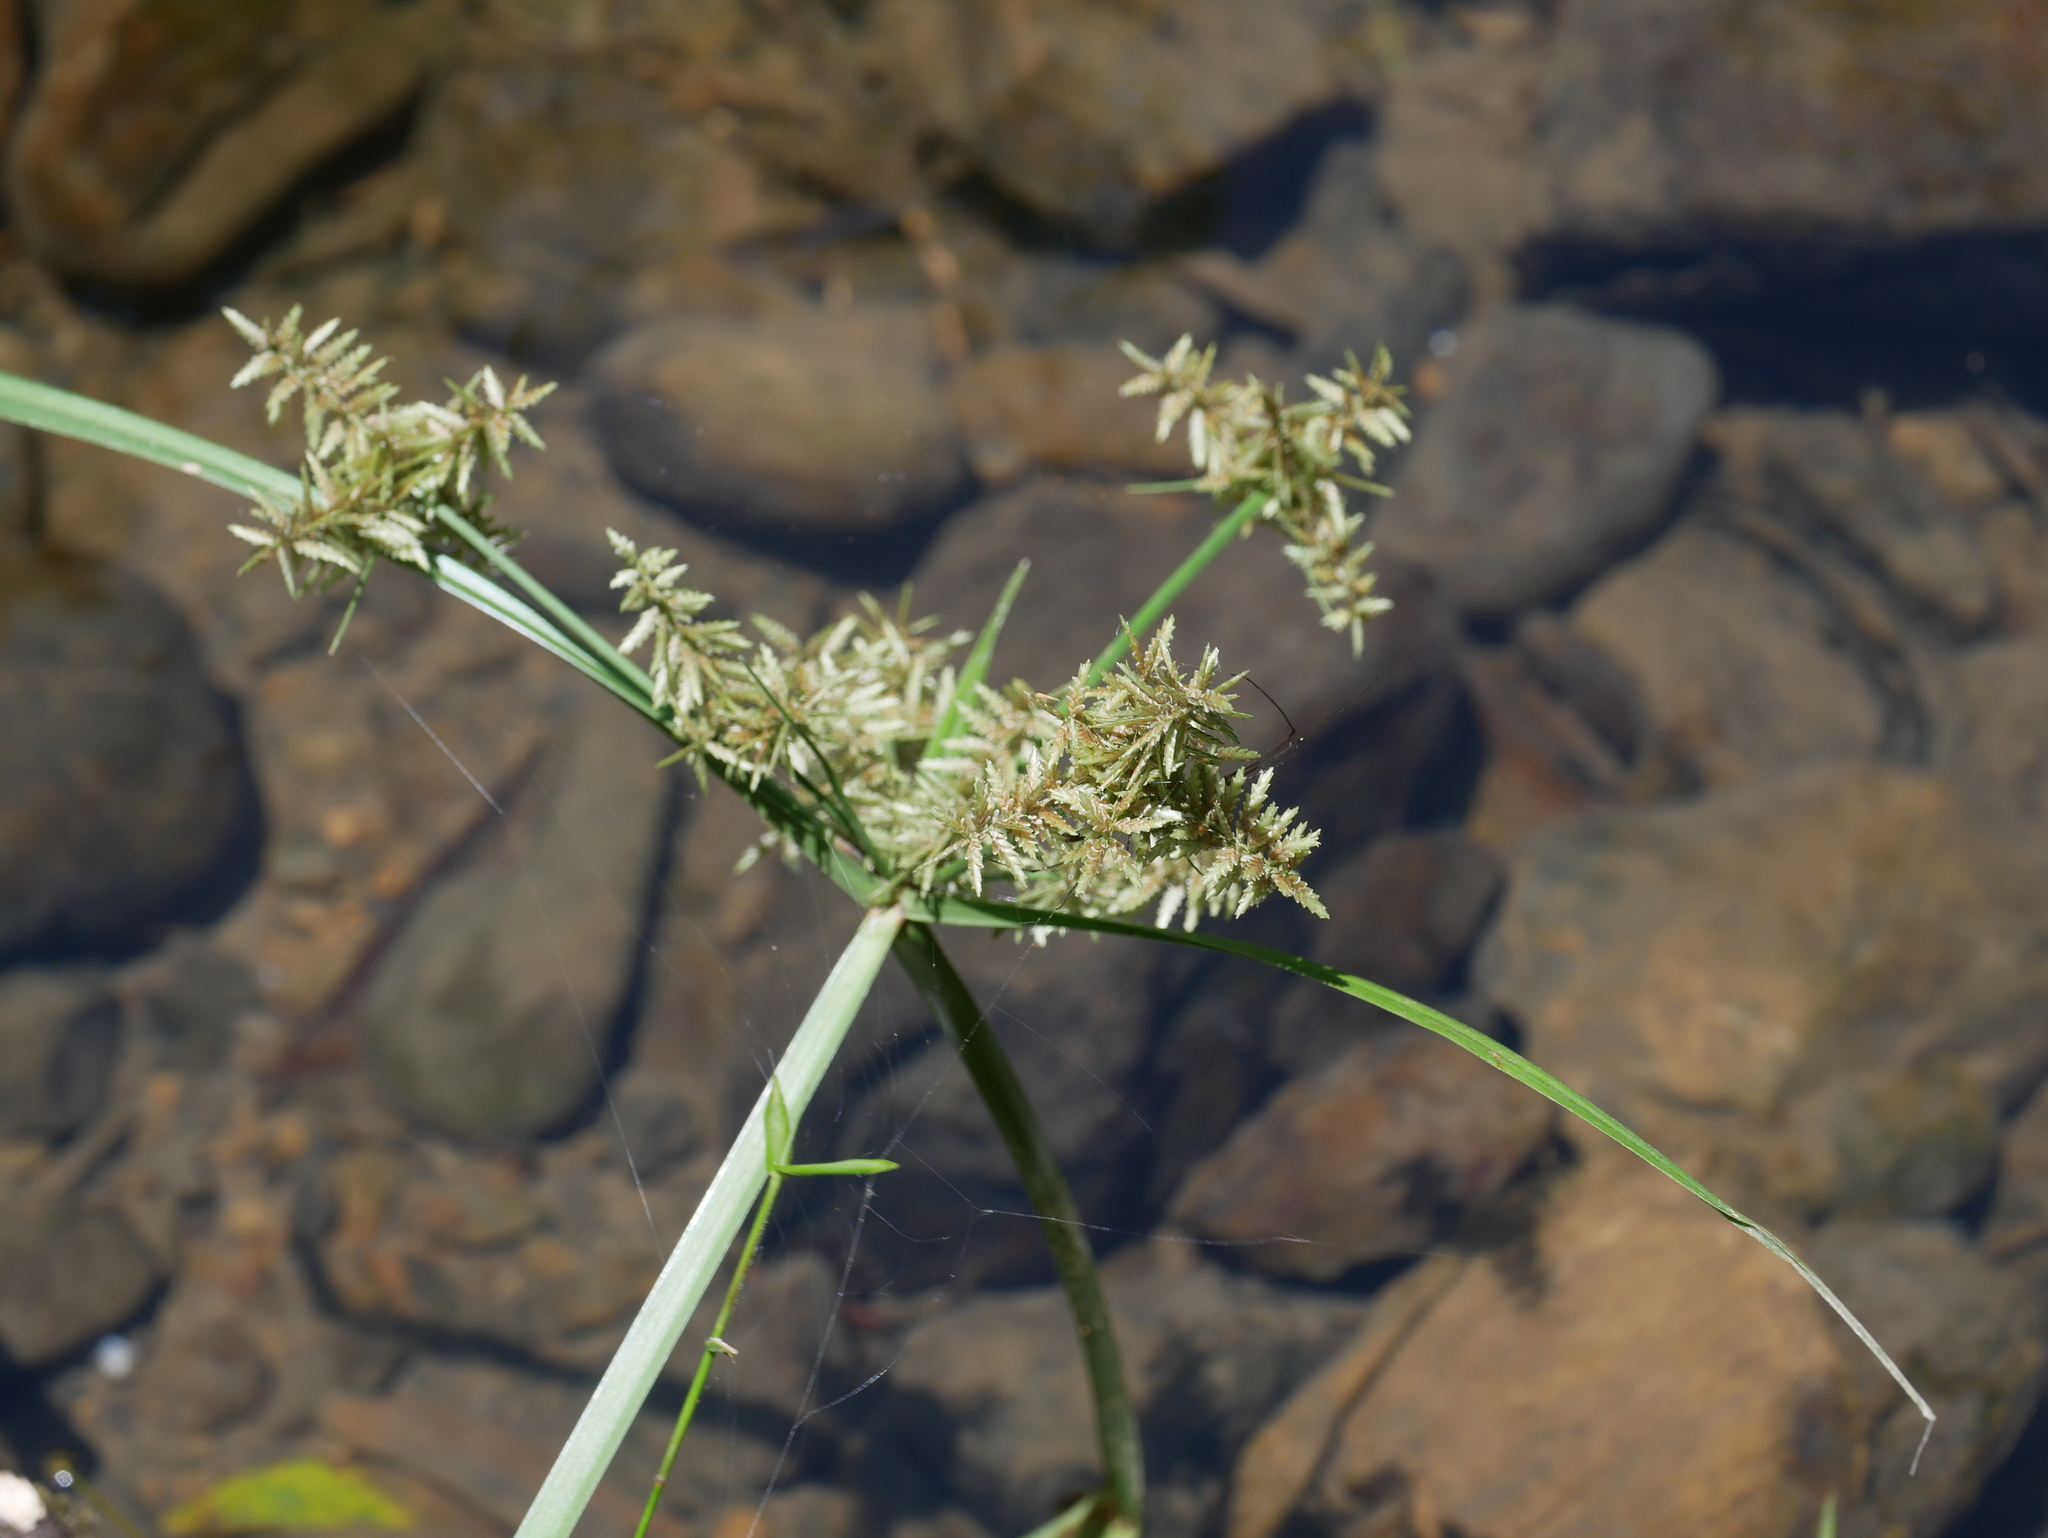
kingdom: Plantae
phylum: Tracheophyta
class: Liliopsida
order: Poales
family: Cyperaceae
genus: Cyperus
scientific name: Cyperus pilosus
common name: Fuzzy flatsedge
